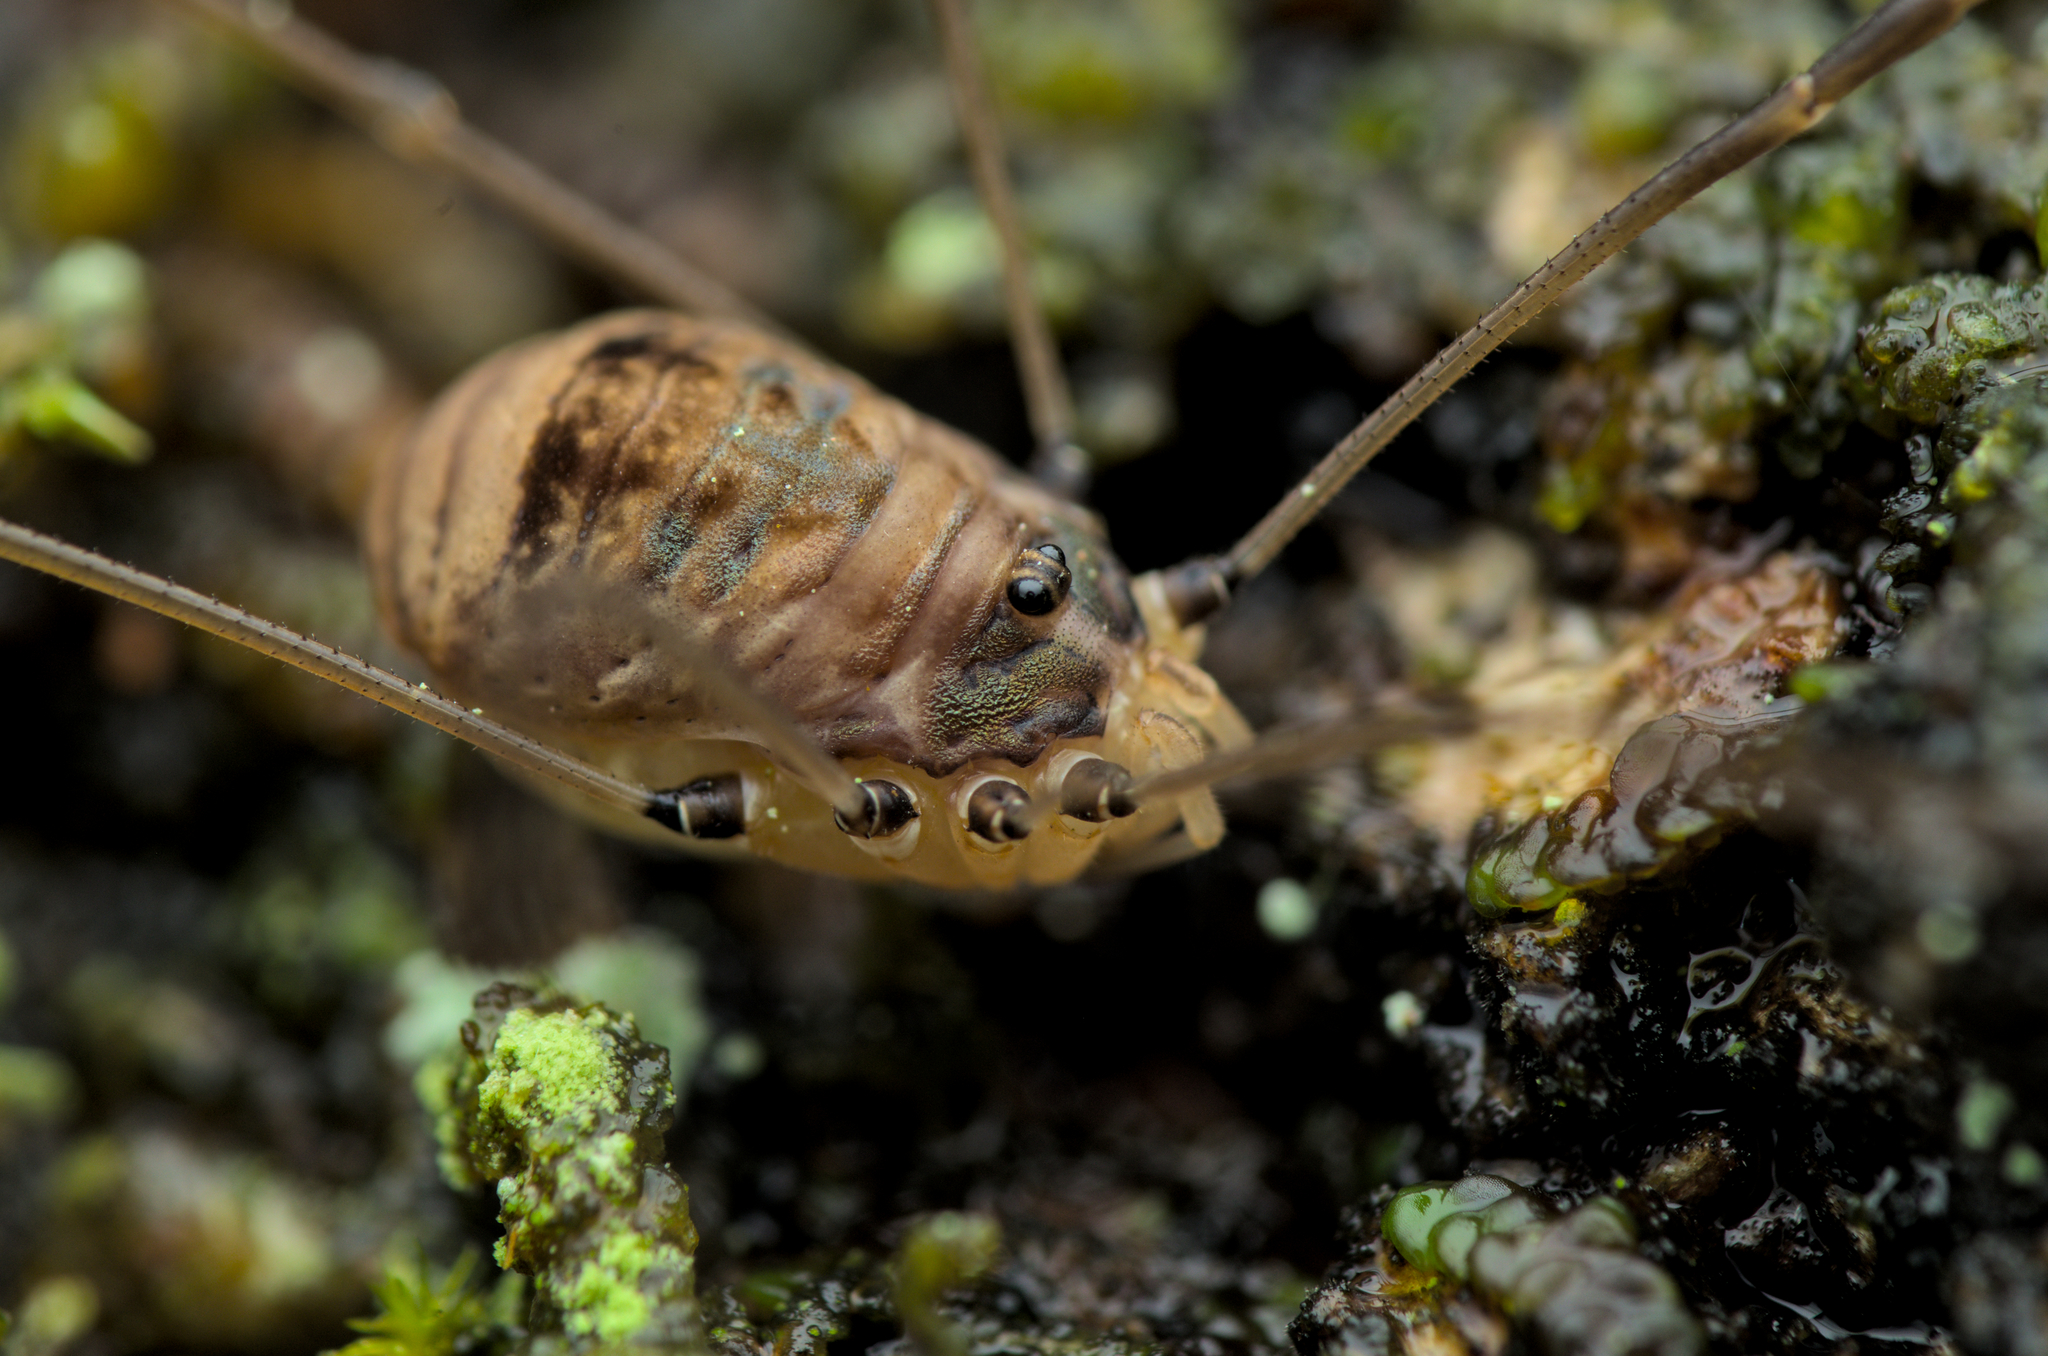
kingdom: Animalia
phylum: Arthropoda
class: Arachnida
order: Opiliones
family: Sclerosomatidae
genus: Leiobunum
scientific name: Leiobunum blackwalli
